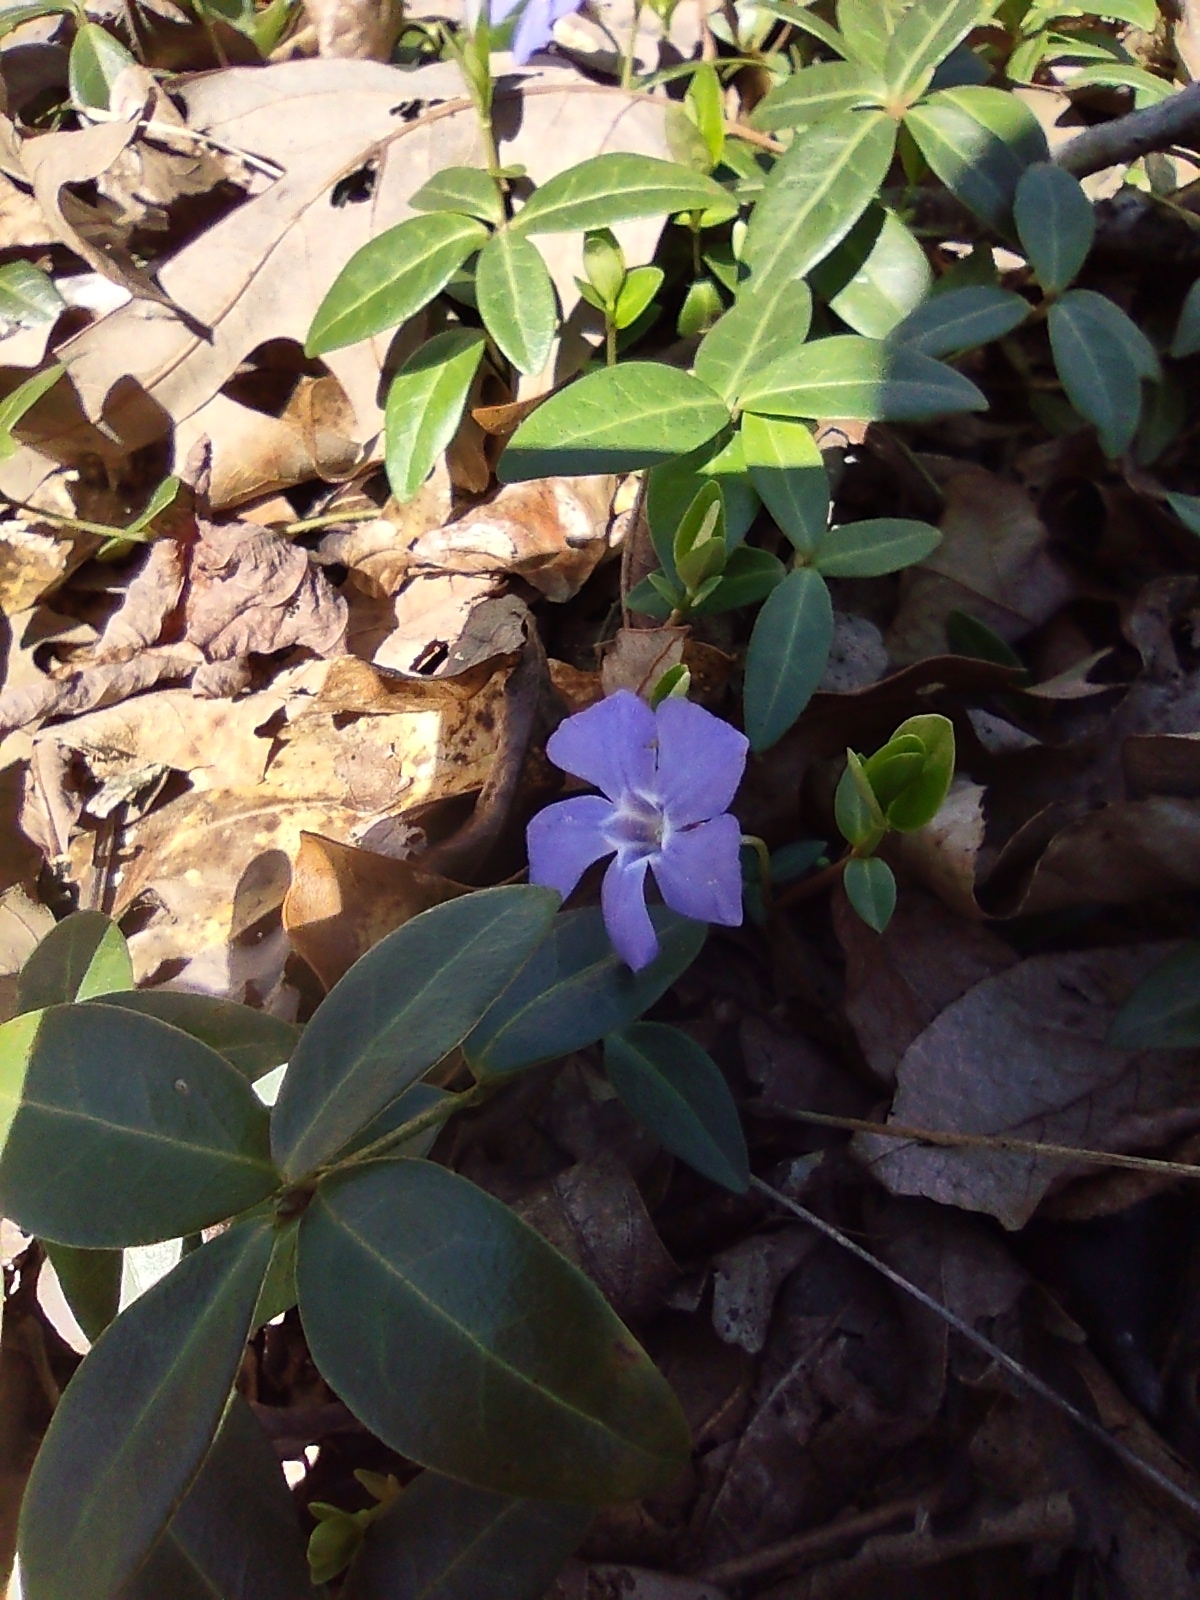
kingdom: Plantae
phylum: Tracheophyta
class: Magnoliopsida
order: Gentianales
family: Apocynaceae
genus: Vinca
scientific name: Vinca minor
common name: Lesser periwinkle
